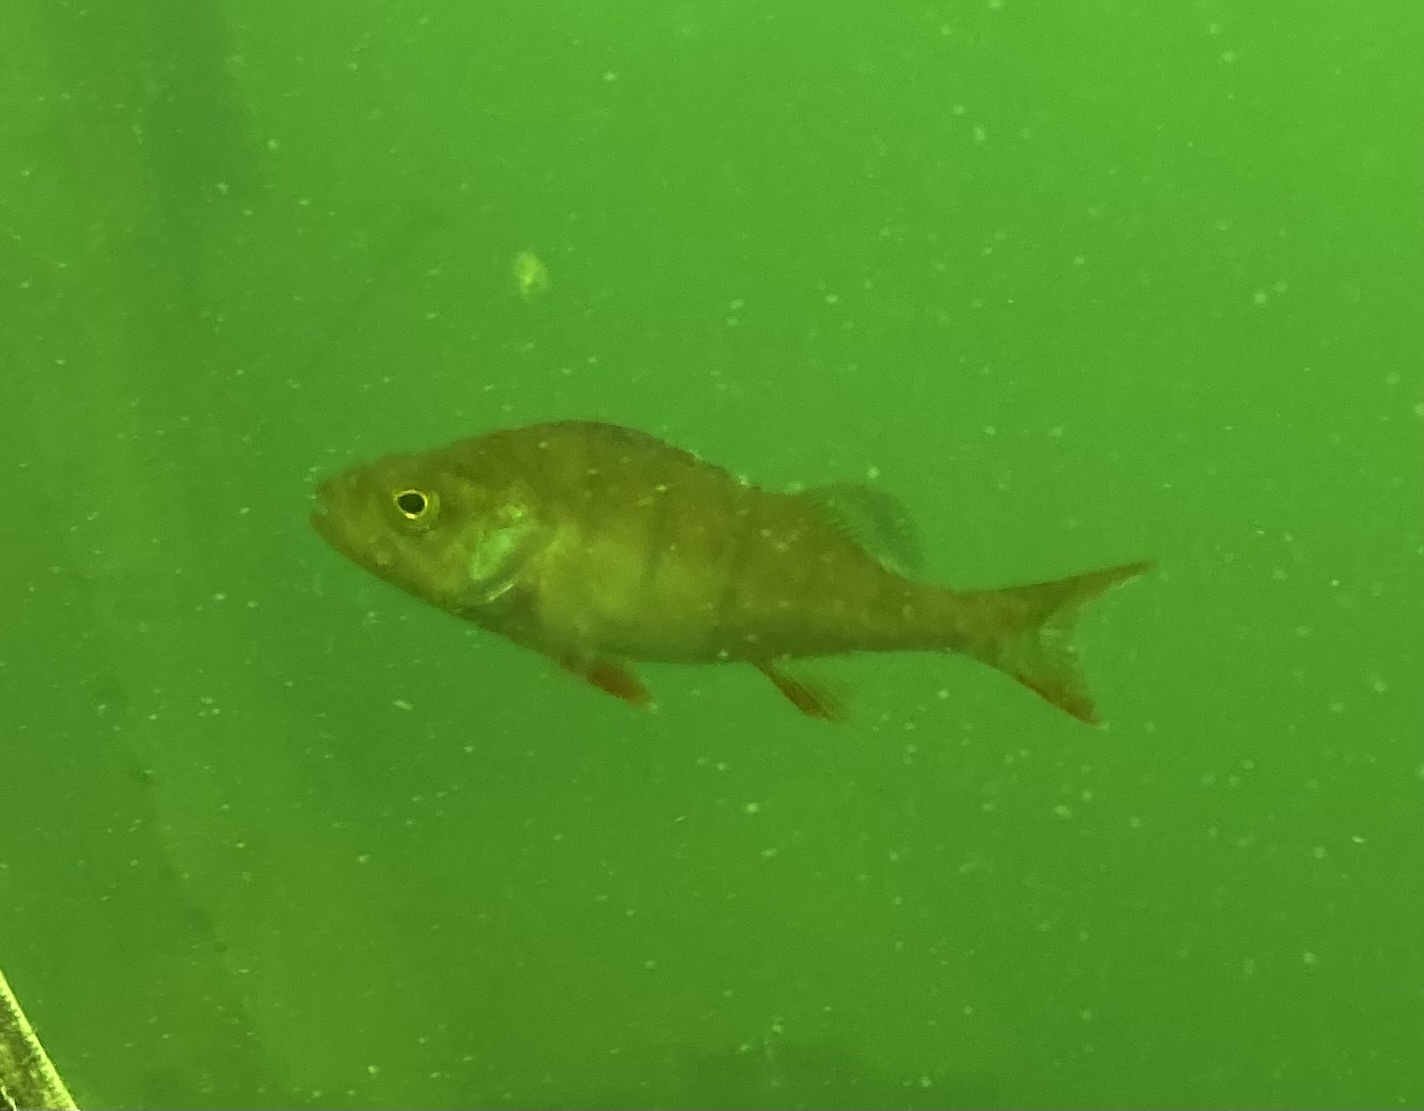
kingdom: Animalia
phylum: Chordata
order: Perciformes
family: Percidae
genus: Perca
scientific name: Perca fluviatilis
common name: Perch
